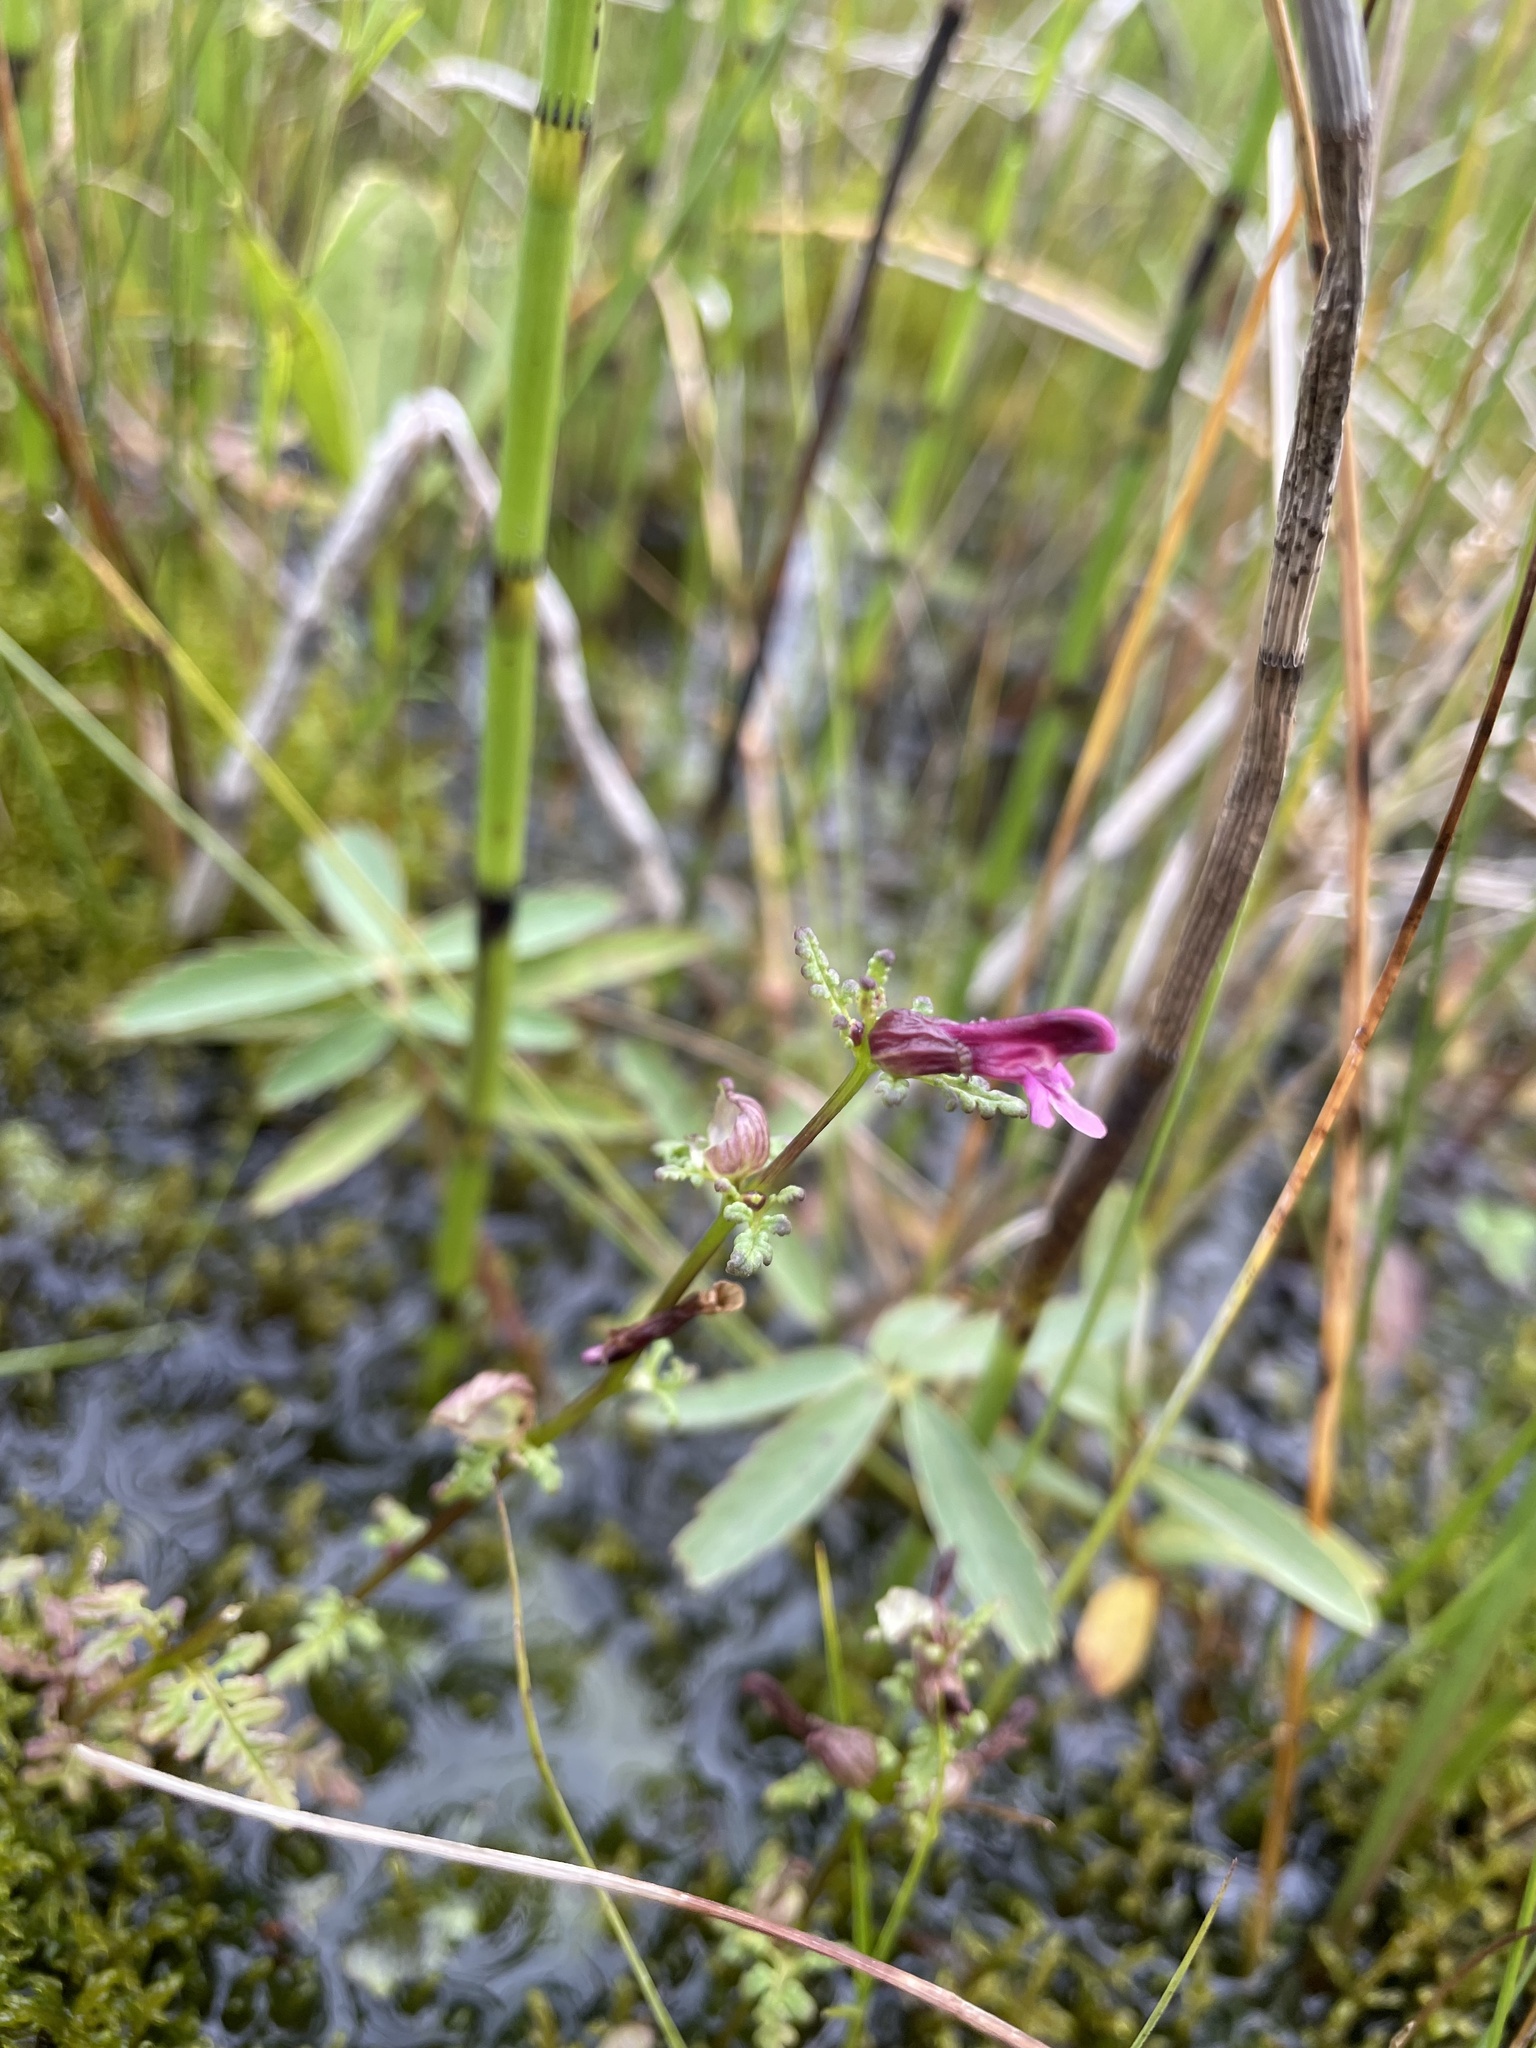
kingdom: Plantae
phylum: Tracheophyta
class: Magnoliopsida
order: Lamiales
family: Orobanchaceae
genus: Pedicularis
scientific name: Pedicularis parviflora
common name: Muskeg lousewort
